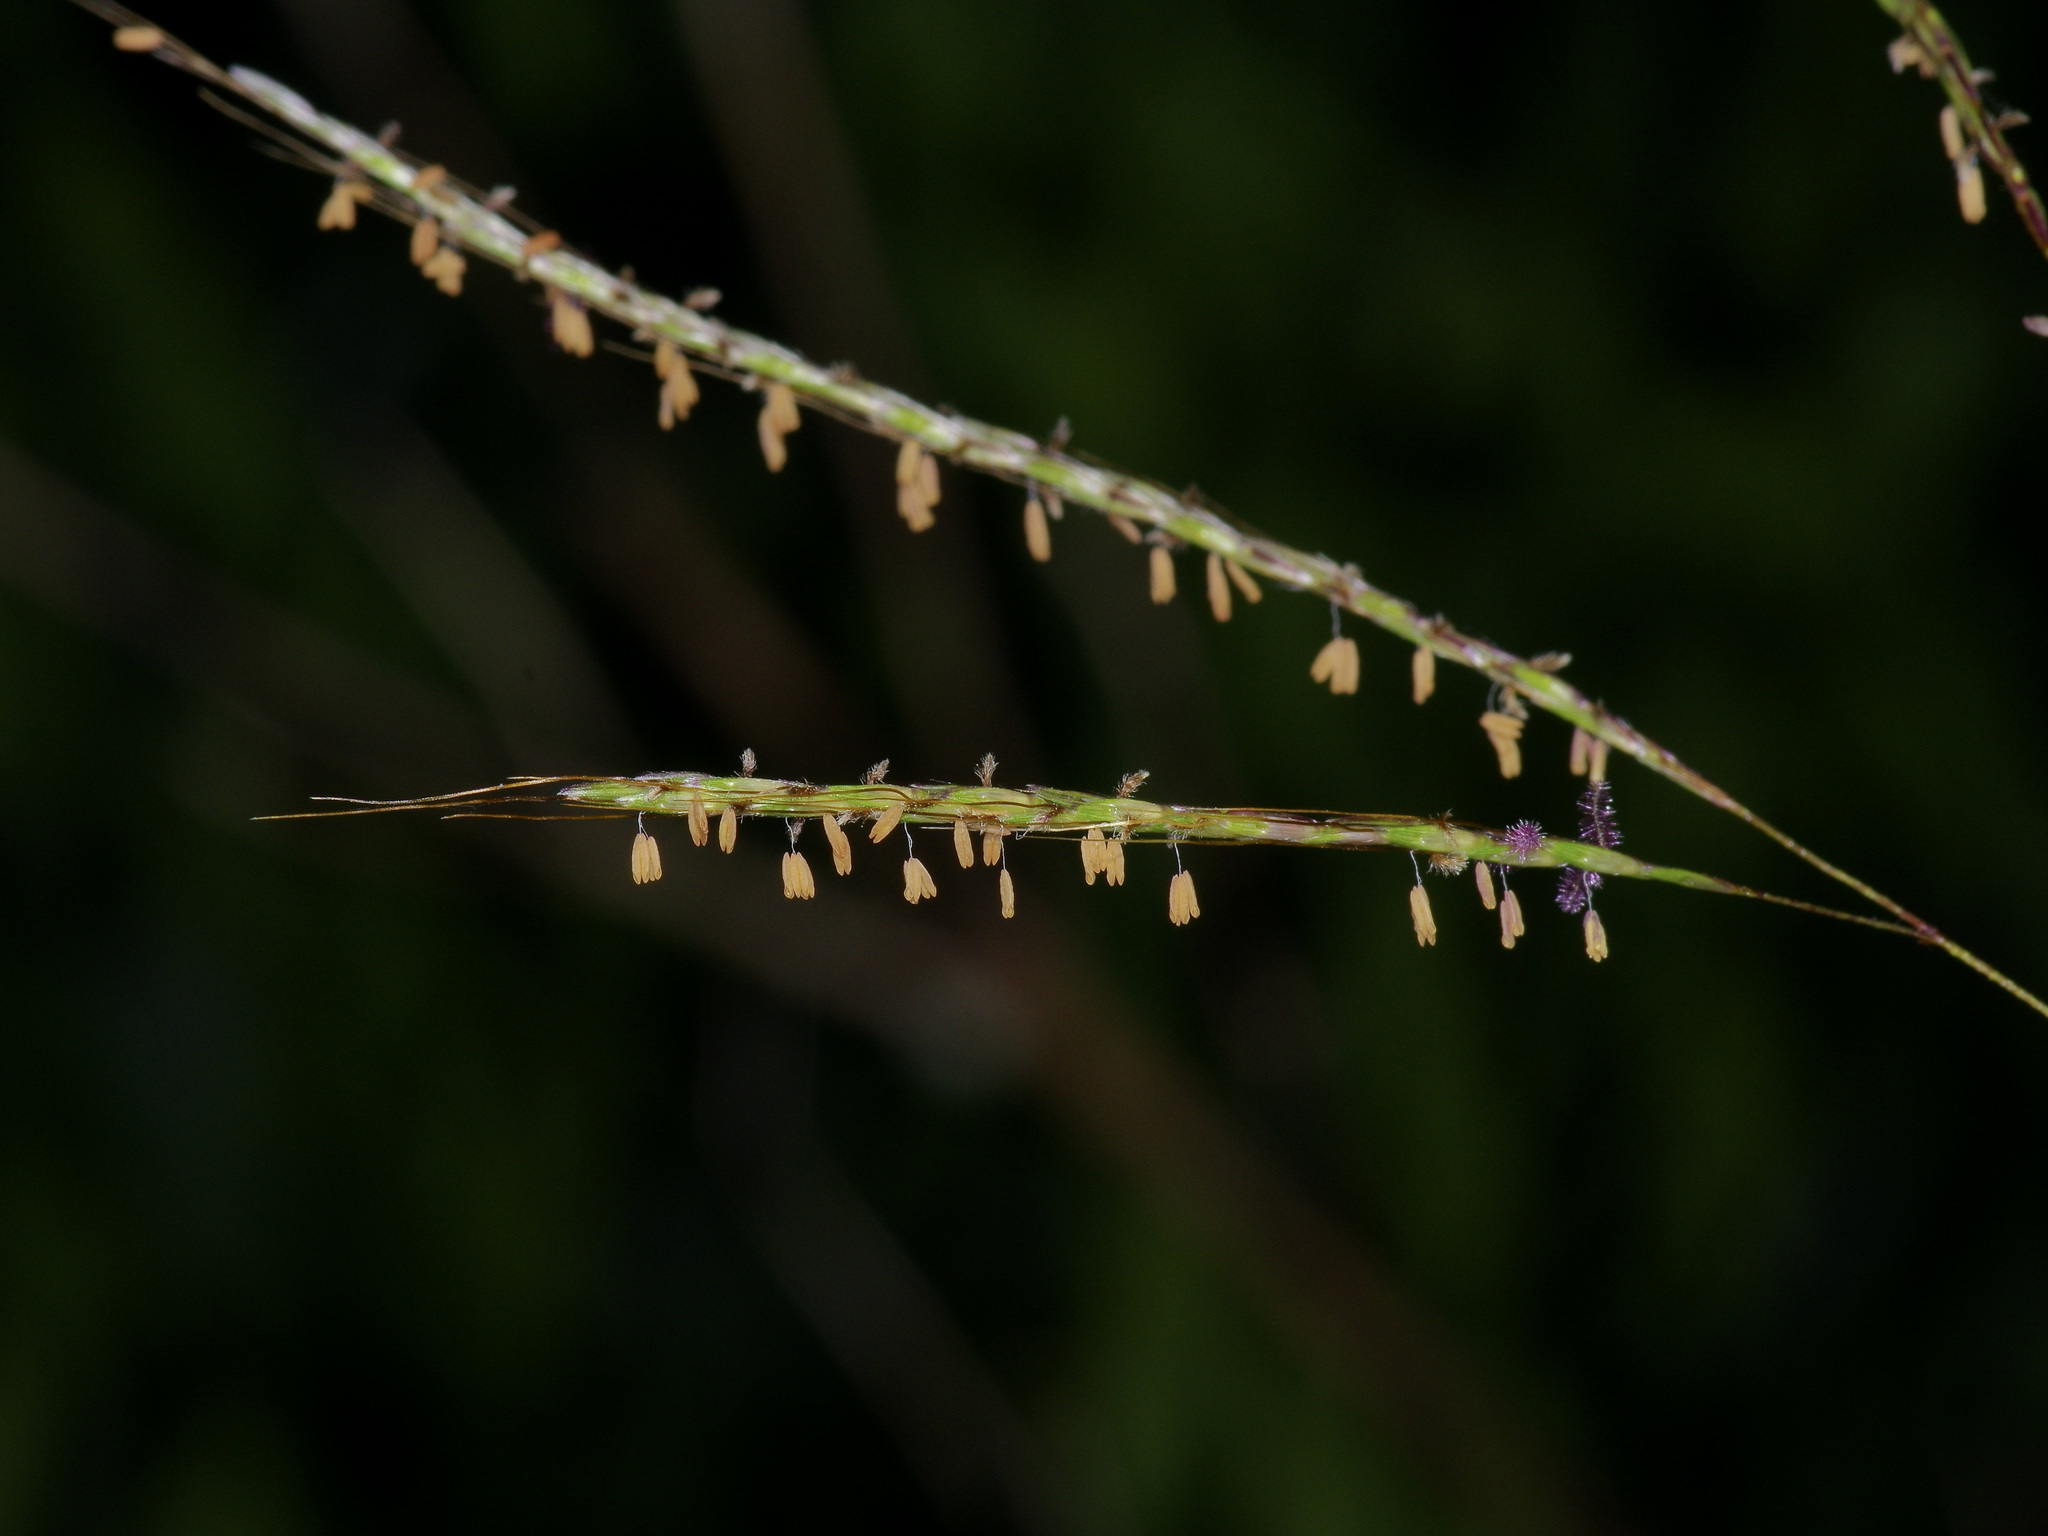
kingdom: Plantae
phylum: Tracheophyta
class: Liliopsida
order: Poales
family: Poaceae
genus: Bothriochloa
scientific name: Bothriochloa ischaemum
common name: Yellow bluestem
